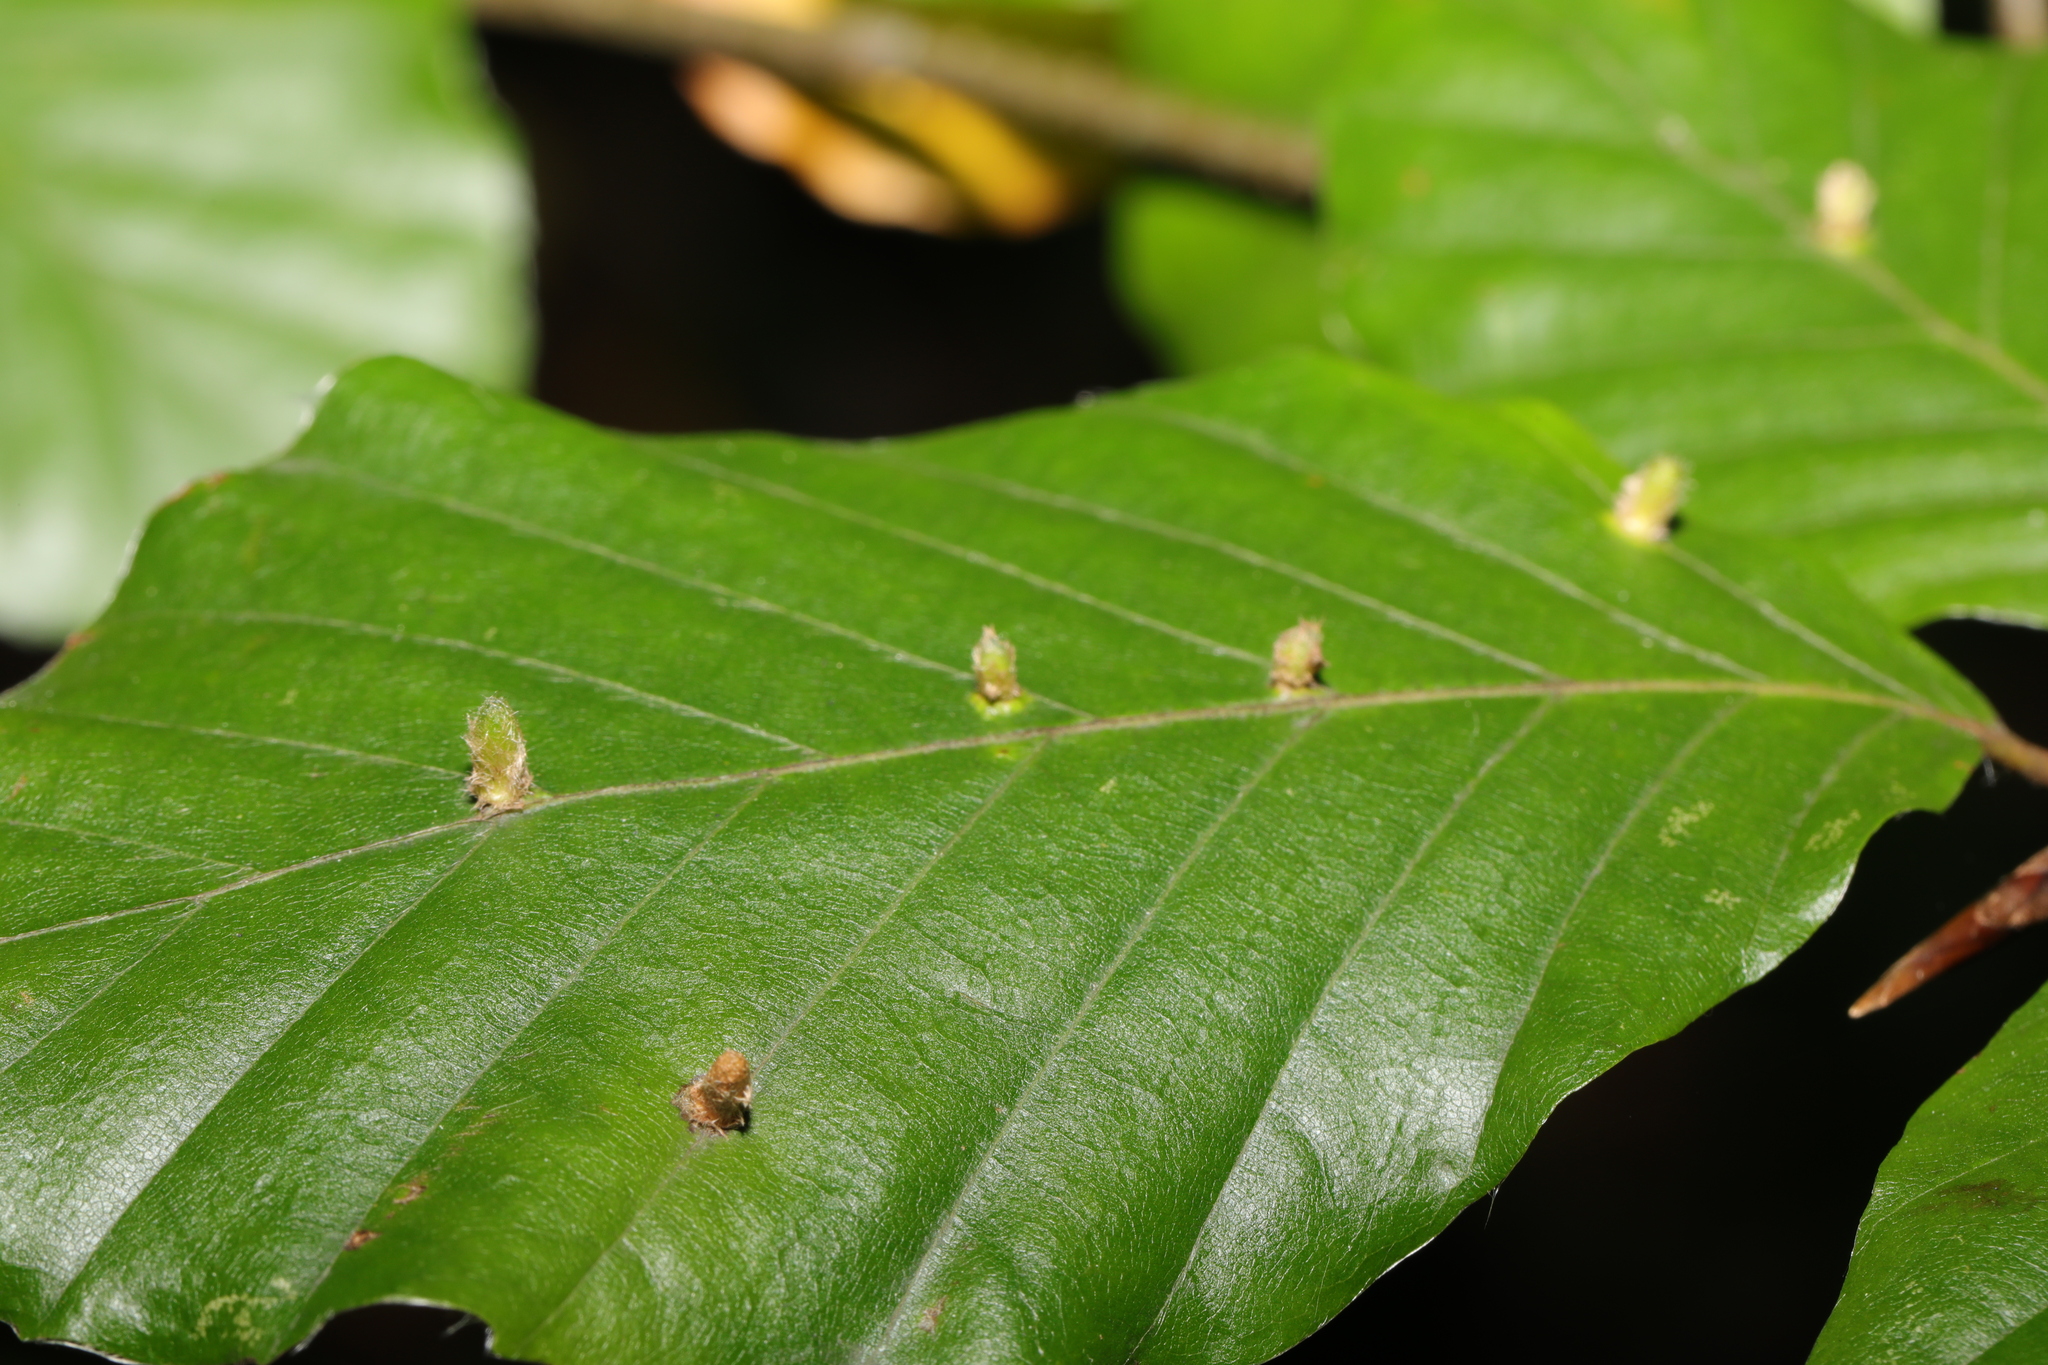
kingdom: Animalia
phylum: Arthropoda
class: Insecta
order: Diptera
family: Cecidomyiidae
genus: Hartigiola
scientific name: Hartigiola annulipes
